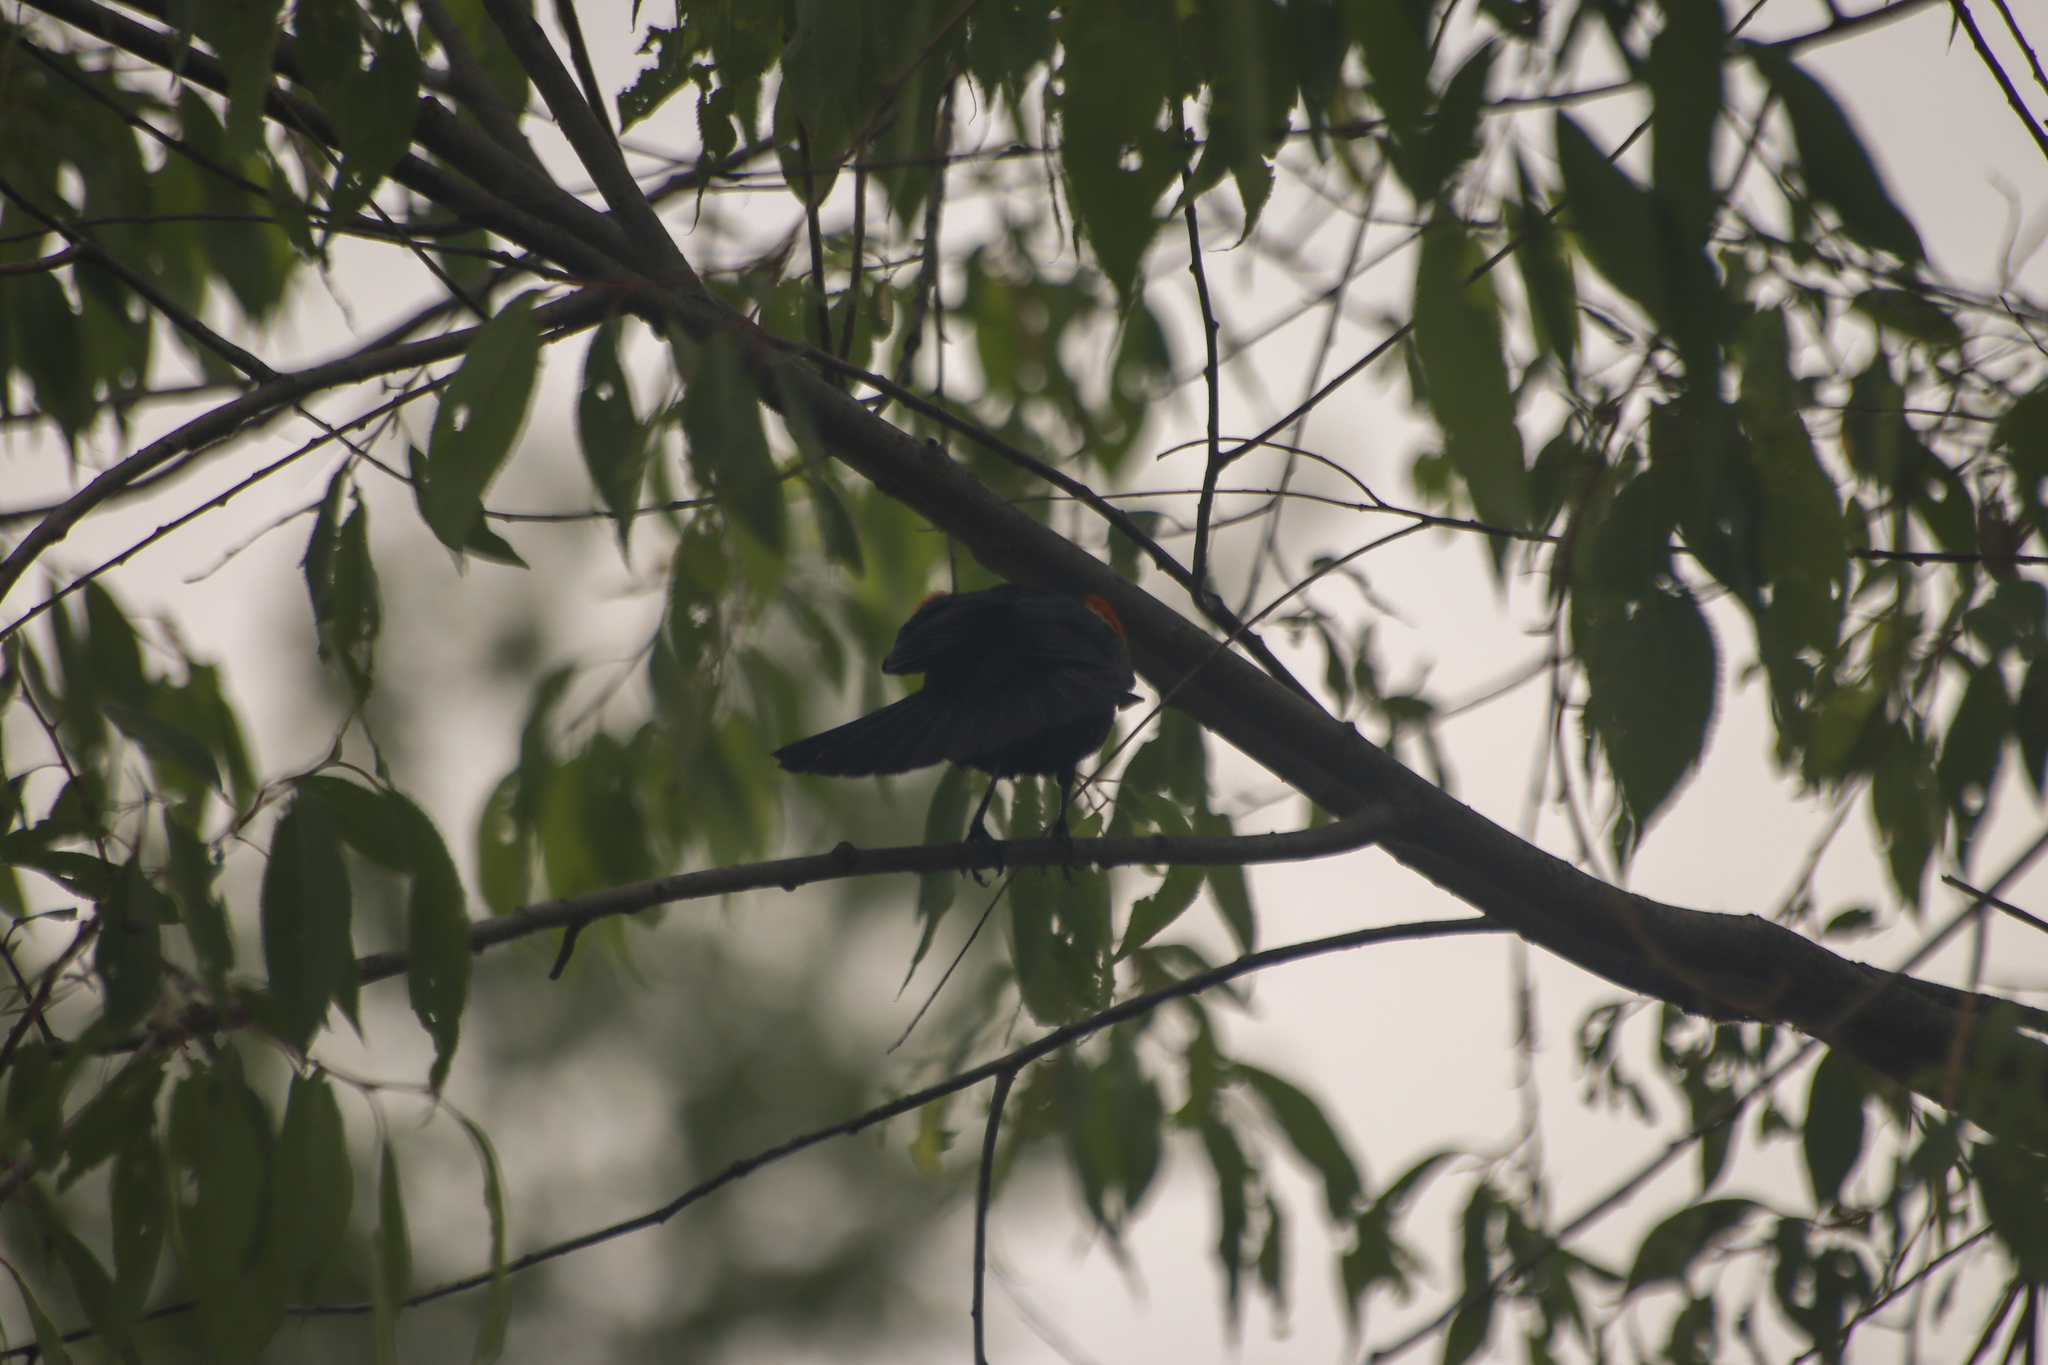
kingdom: Animalia
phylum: Chordata
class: Aves
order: Passeriformes
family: Icteridae
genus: Agelaius
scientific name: Agelaius phoeniceus
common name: Red-winged blackbird
